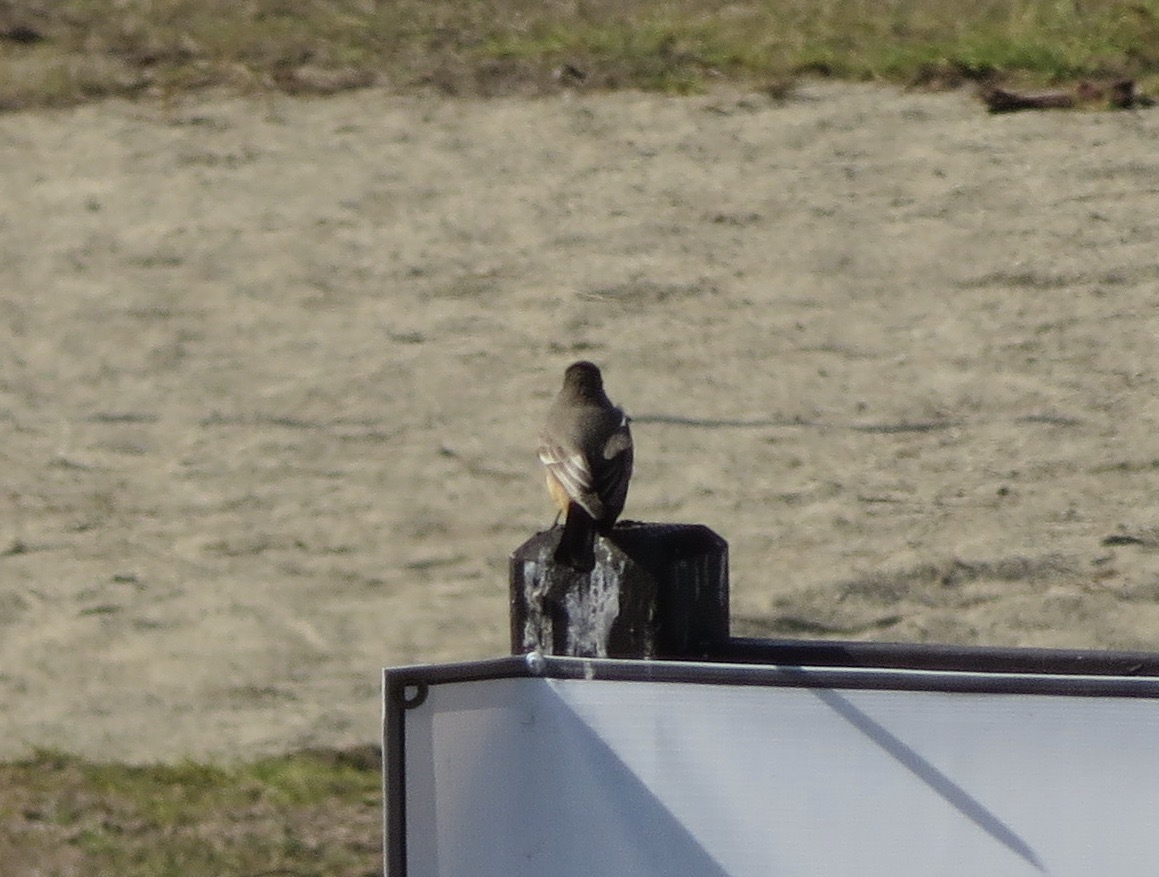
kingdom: Animalia
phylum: Chordata
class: Aves
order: Passeriformes
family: Tyrannidae
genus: Sayornis
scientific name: Sayornis saya
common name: Say's phoebe
